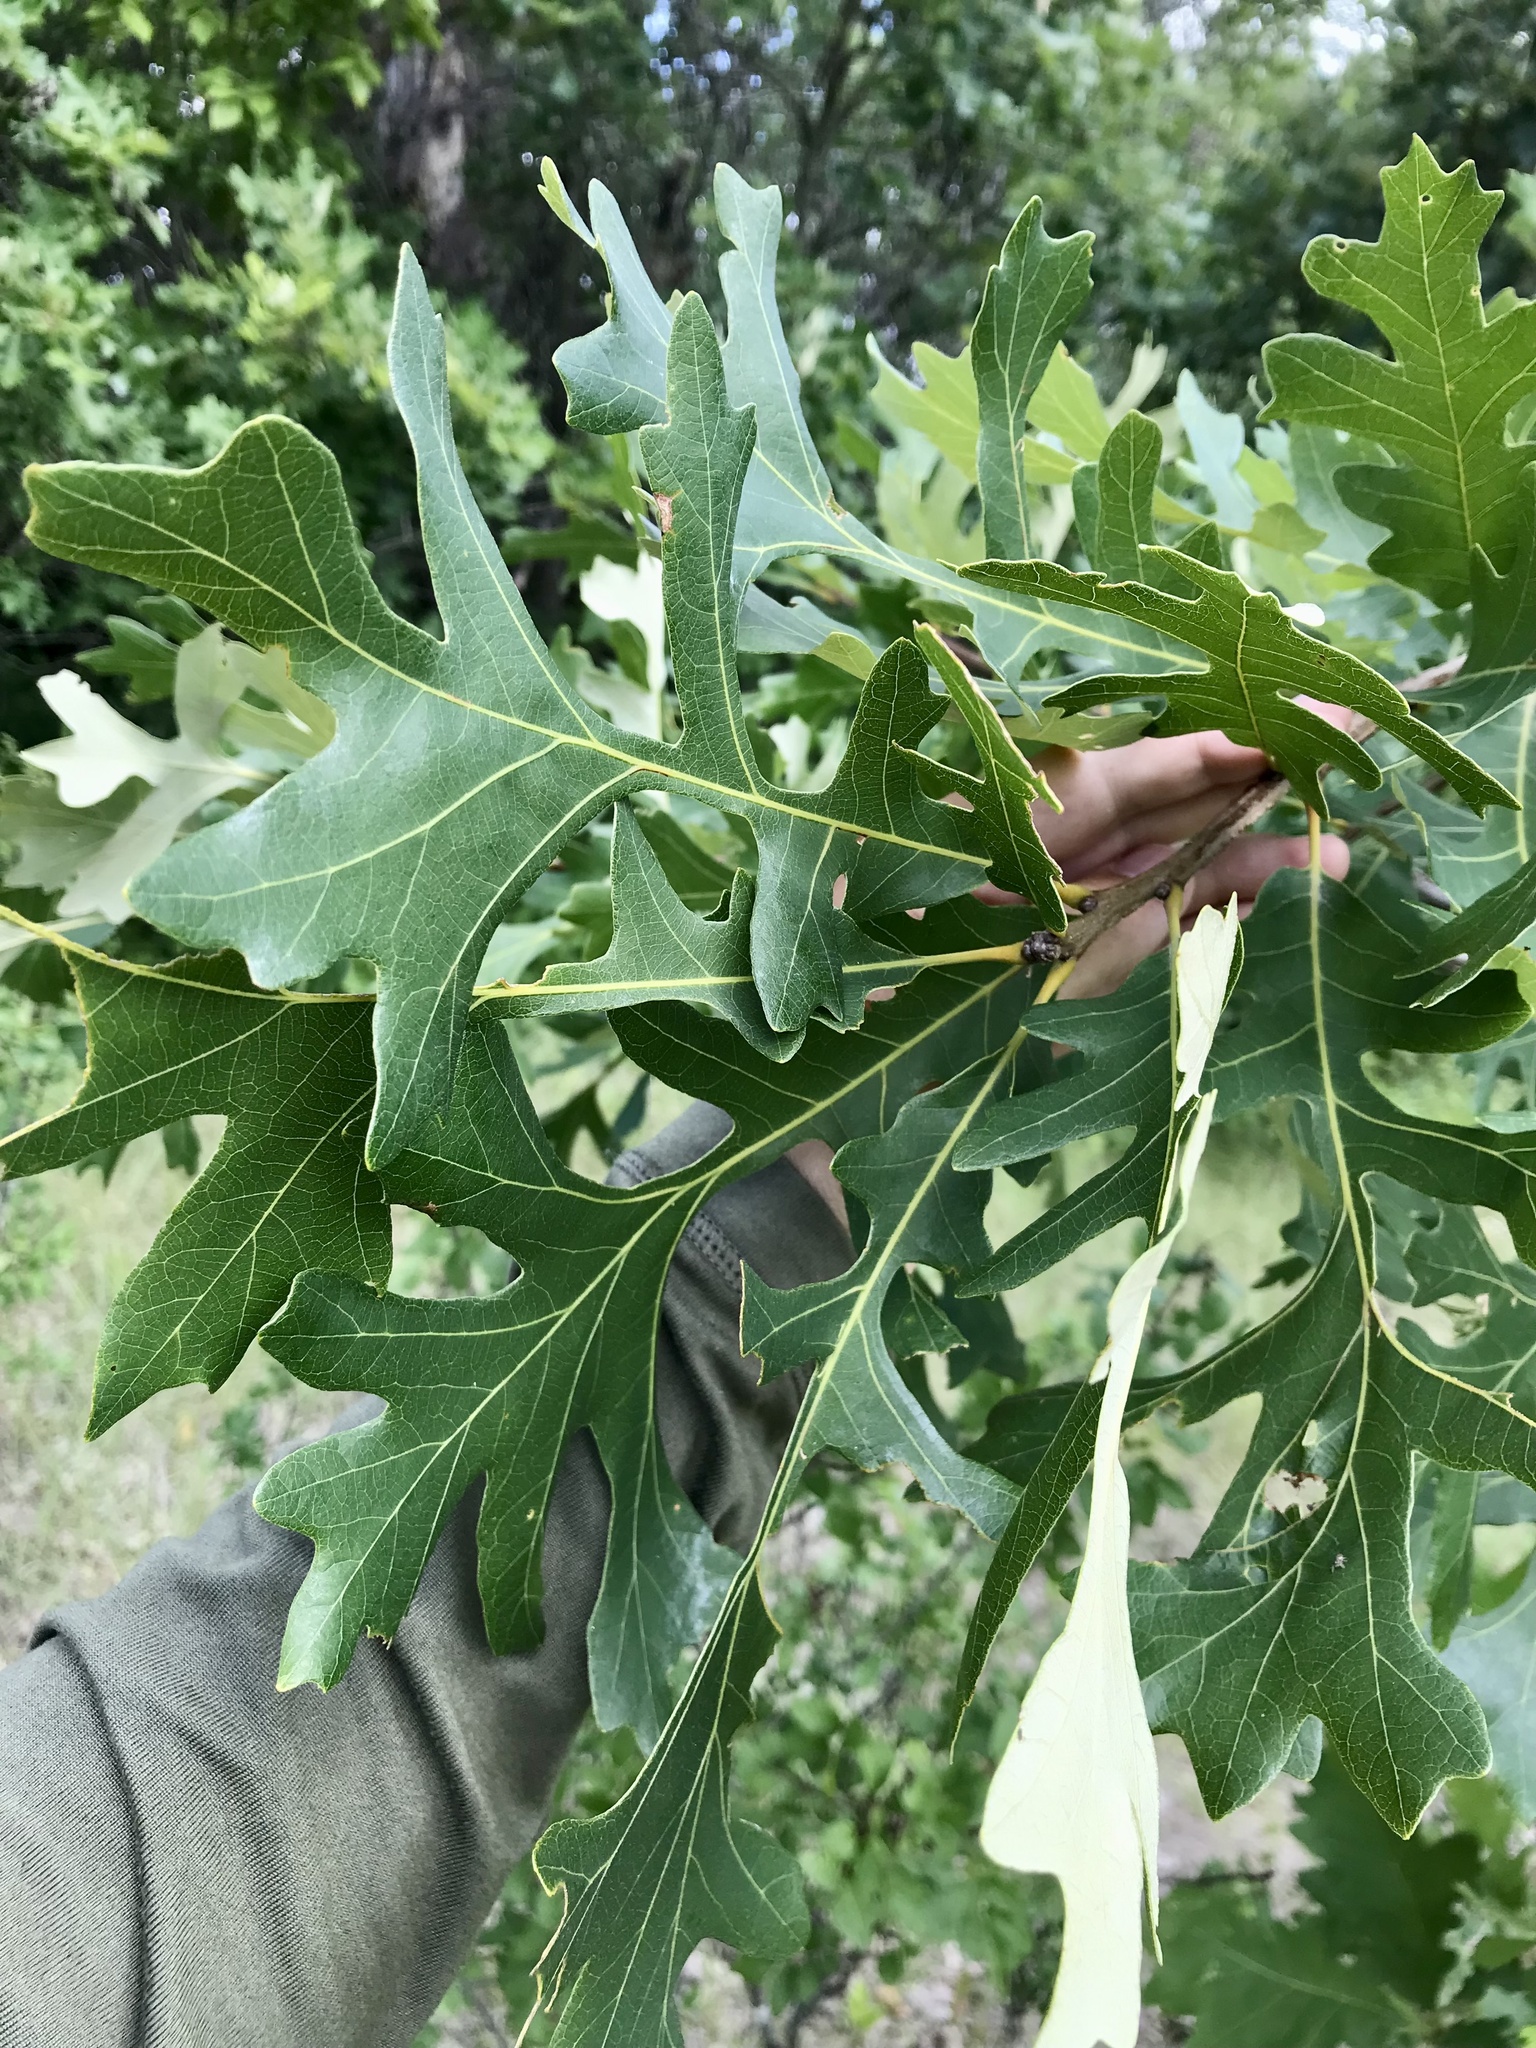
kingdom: Plantae
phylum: Tracheophyta
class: Magnoliopsida
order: Fagales
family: Fagaceae
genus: Quercus
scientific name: Quercus macrocarpa
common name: Bur oak
